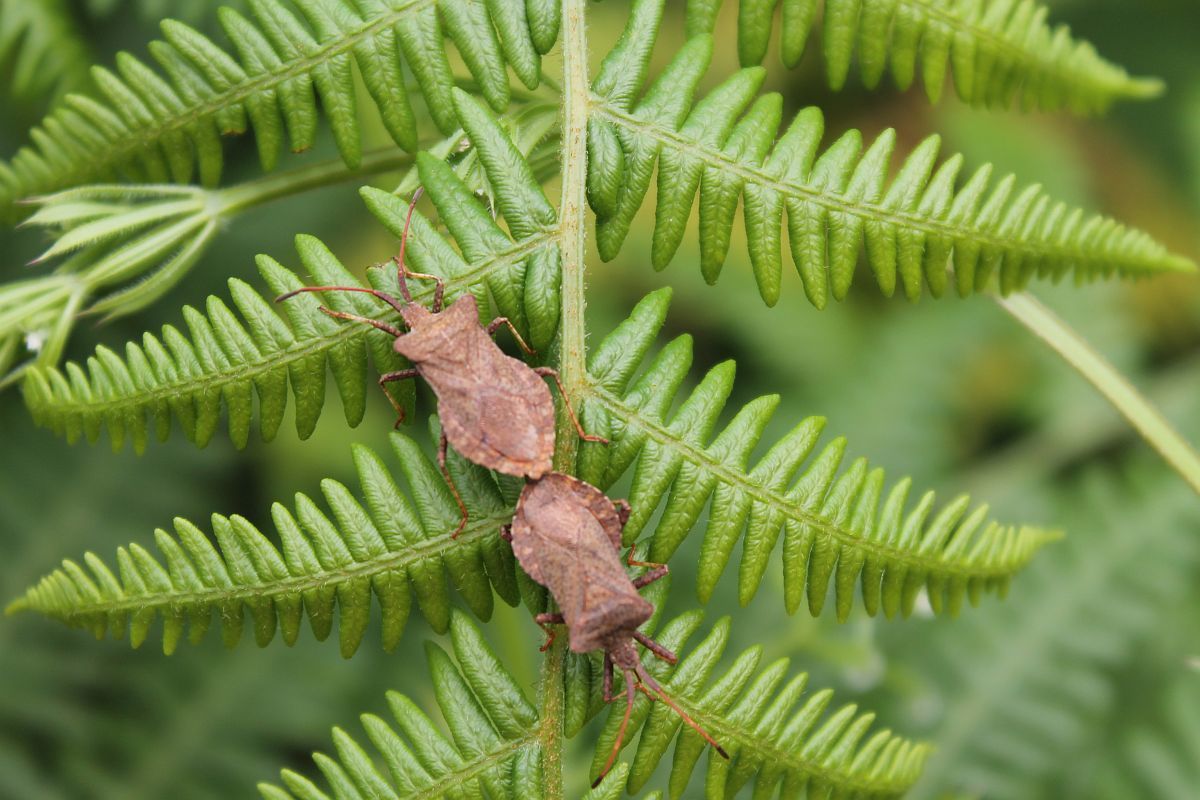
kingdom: Animalia
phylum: Arthropoda
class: Insecta
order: Hemiptera
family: Coreidae
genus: Coreus
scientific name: Coreus marginatus
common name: Dock bug
